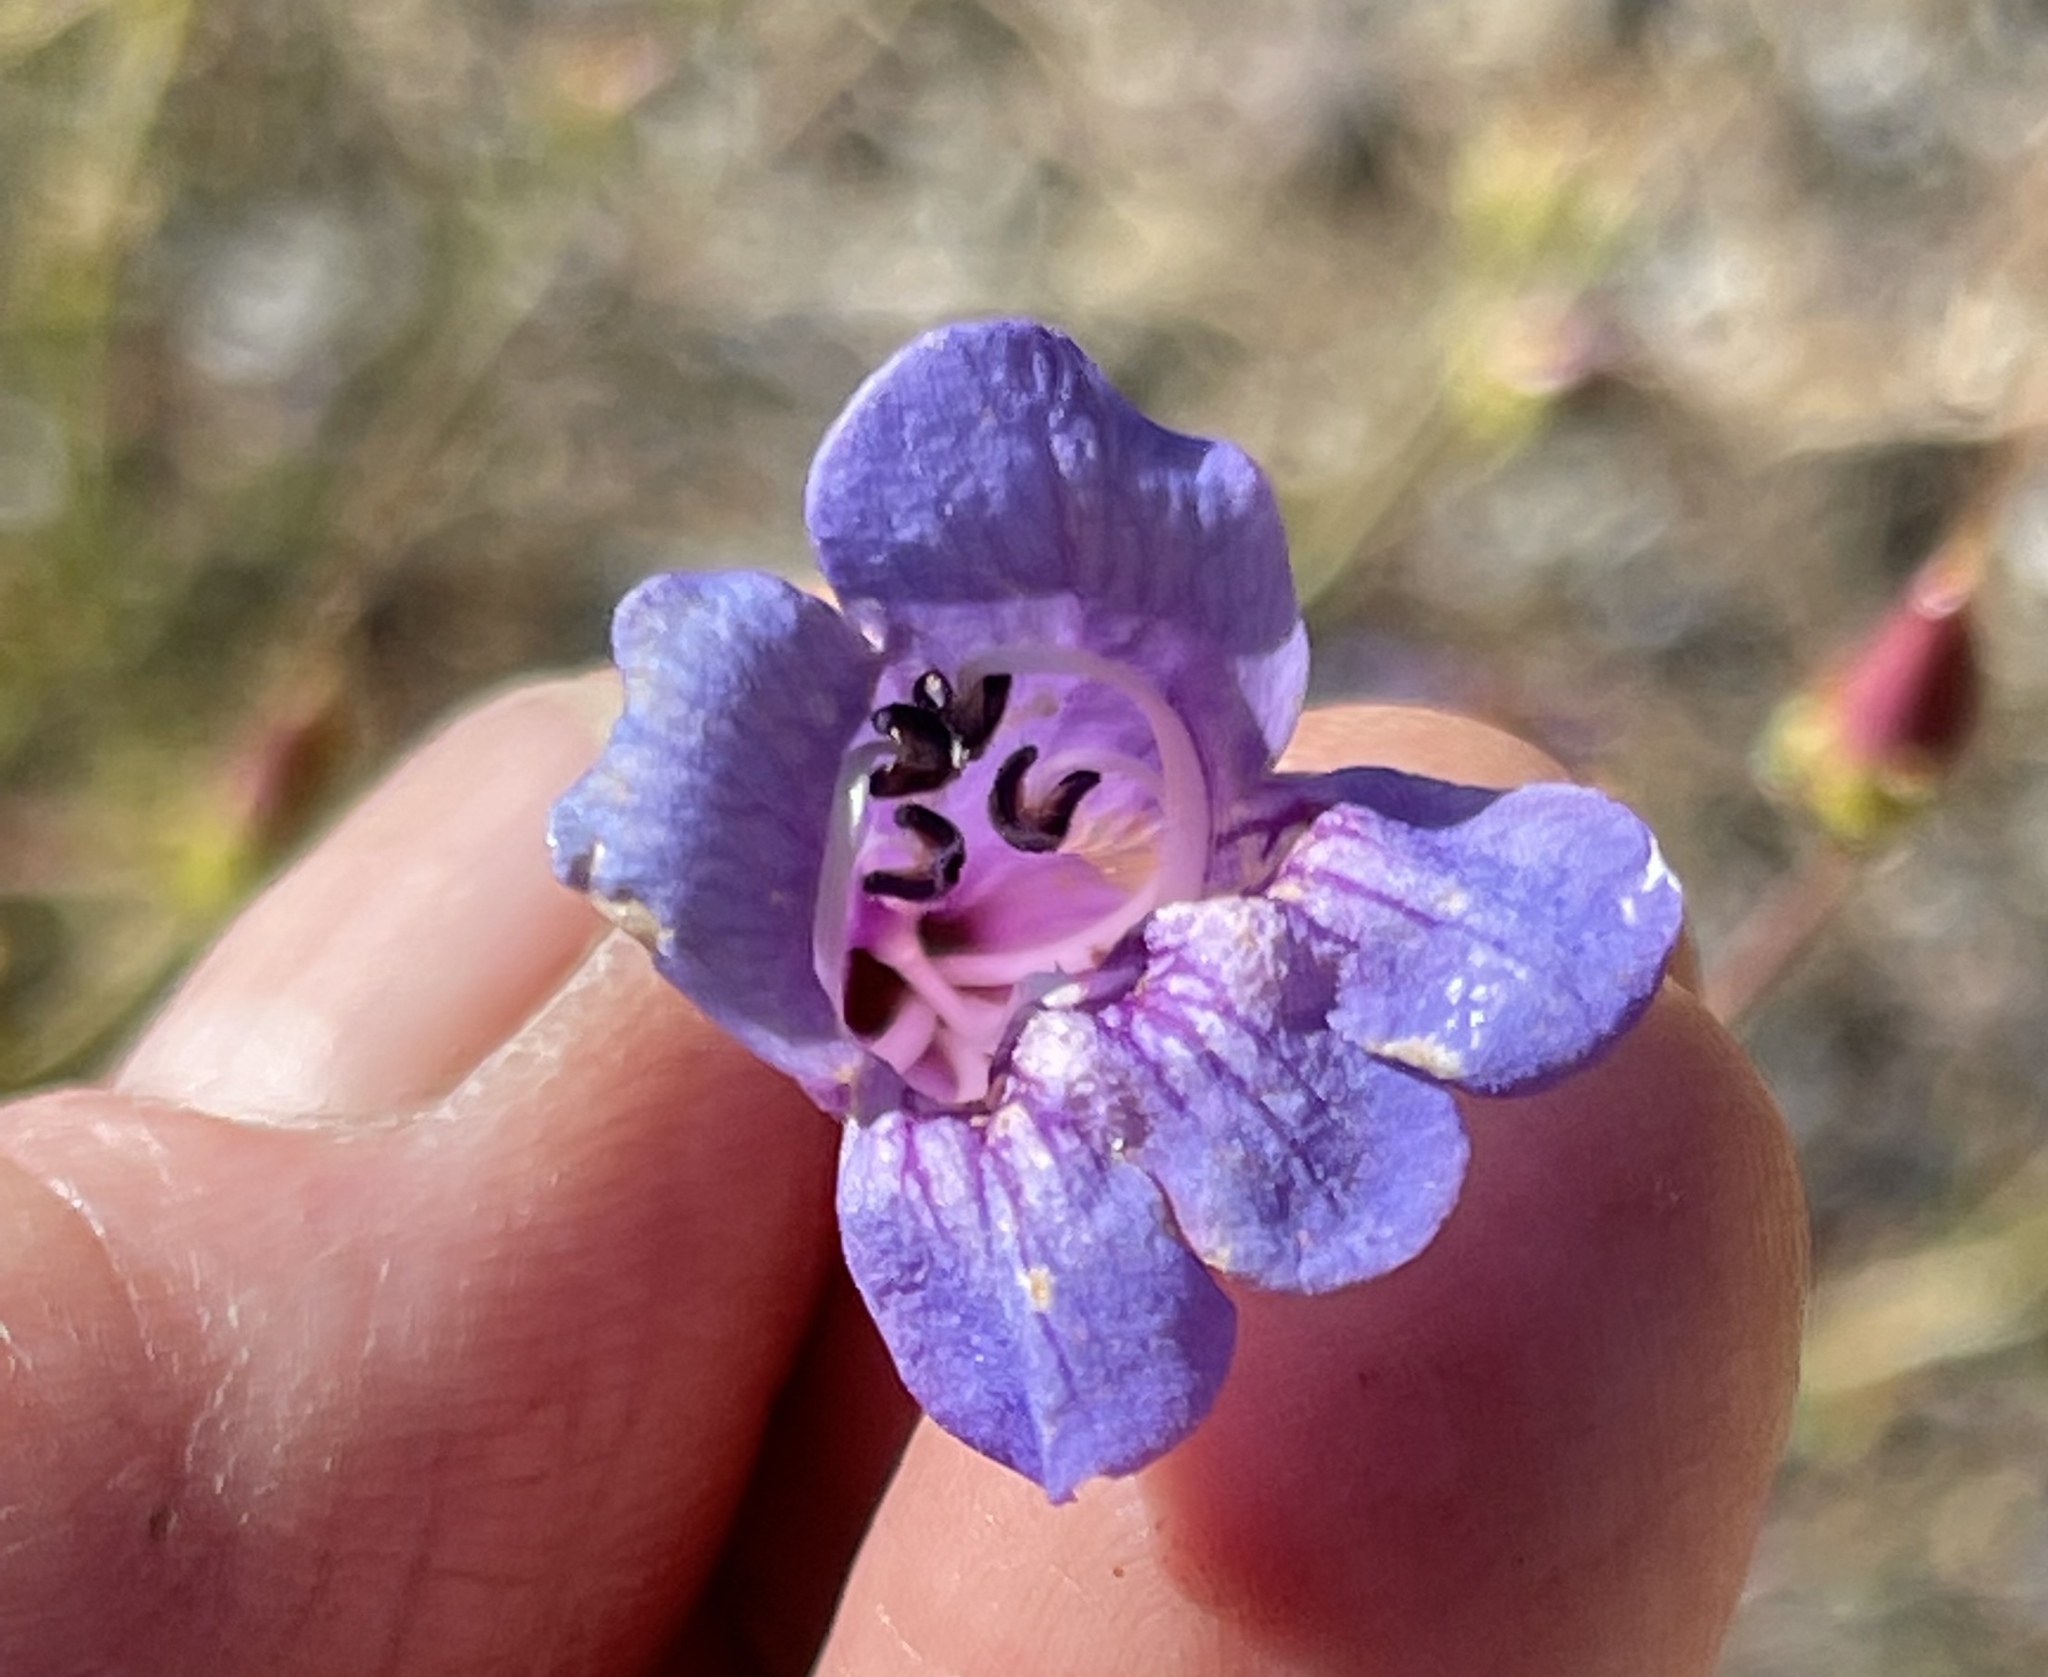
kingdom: Plantae
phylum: Tracheophyta
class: Magnoliopsida
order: Lamiales
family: Plantaginaceae
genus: Penstemon
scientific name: Penstemon heterophyllus
